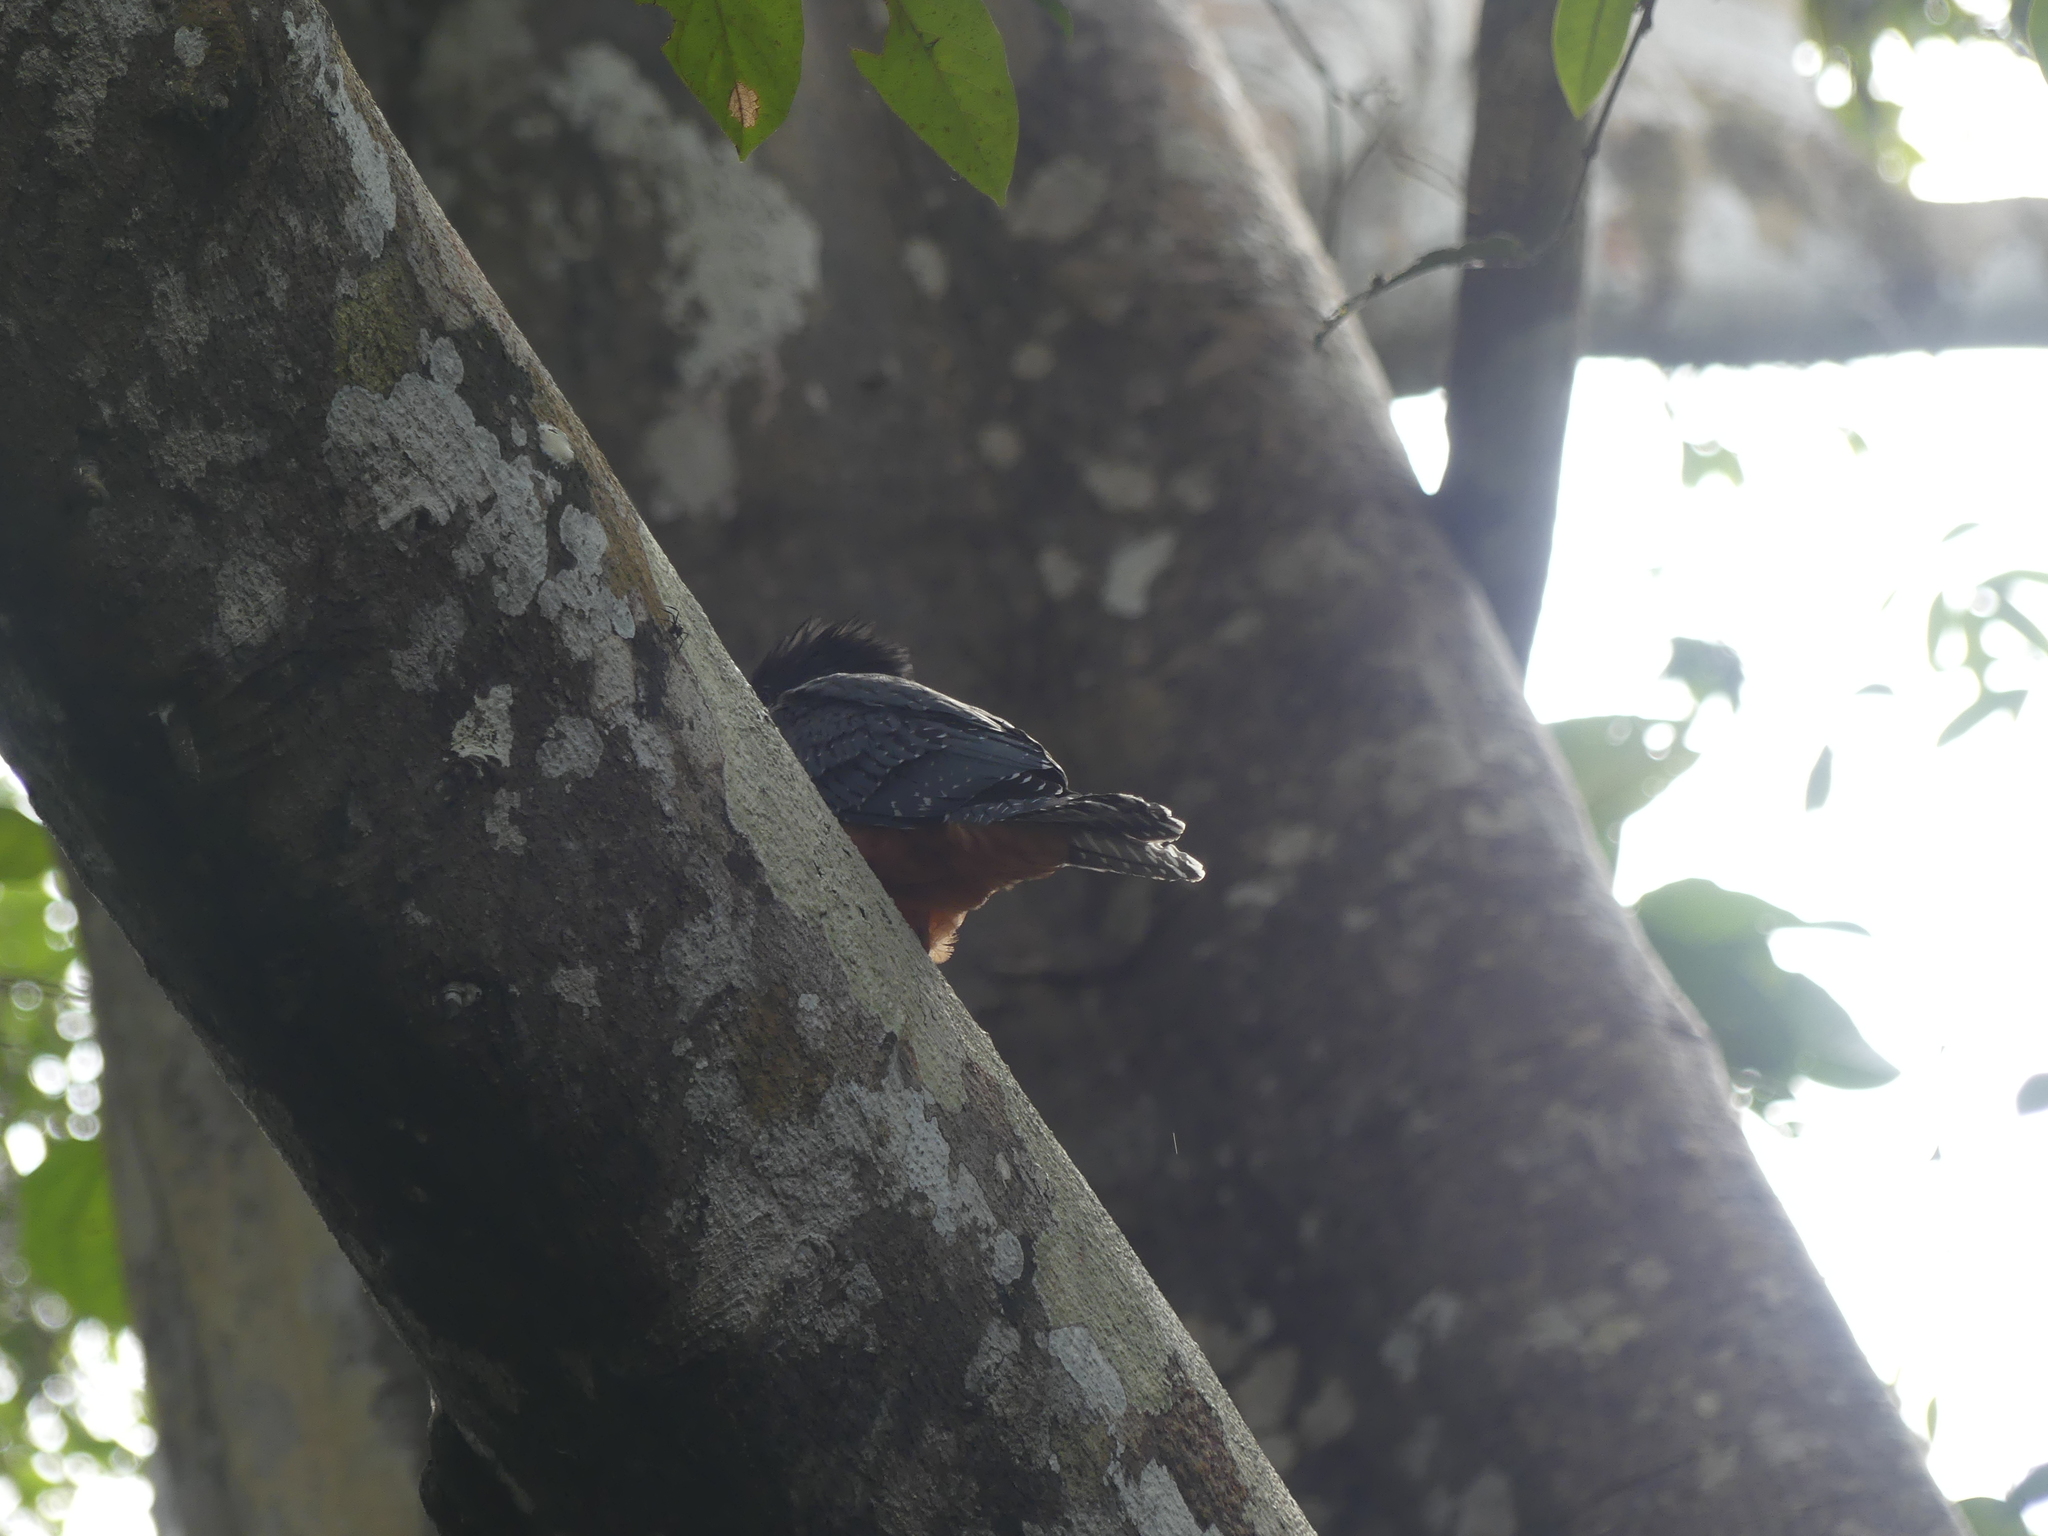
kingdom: Animalia
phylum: Chordata
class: Aves
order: Coraciiformes
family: Alcedinidae
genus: Megaceryle
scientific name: Megaceryle torquata
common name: Ringed kingfisher
